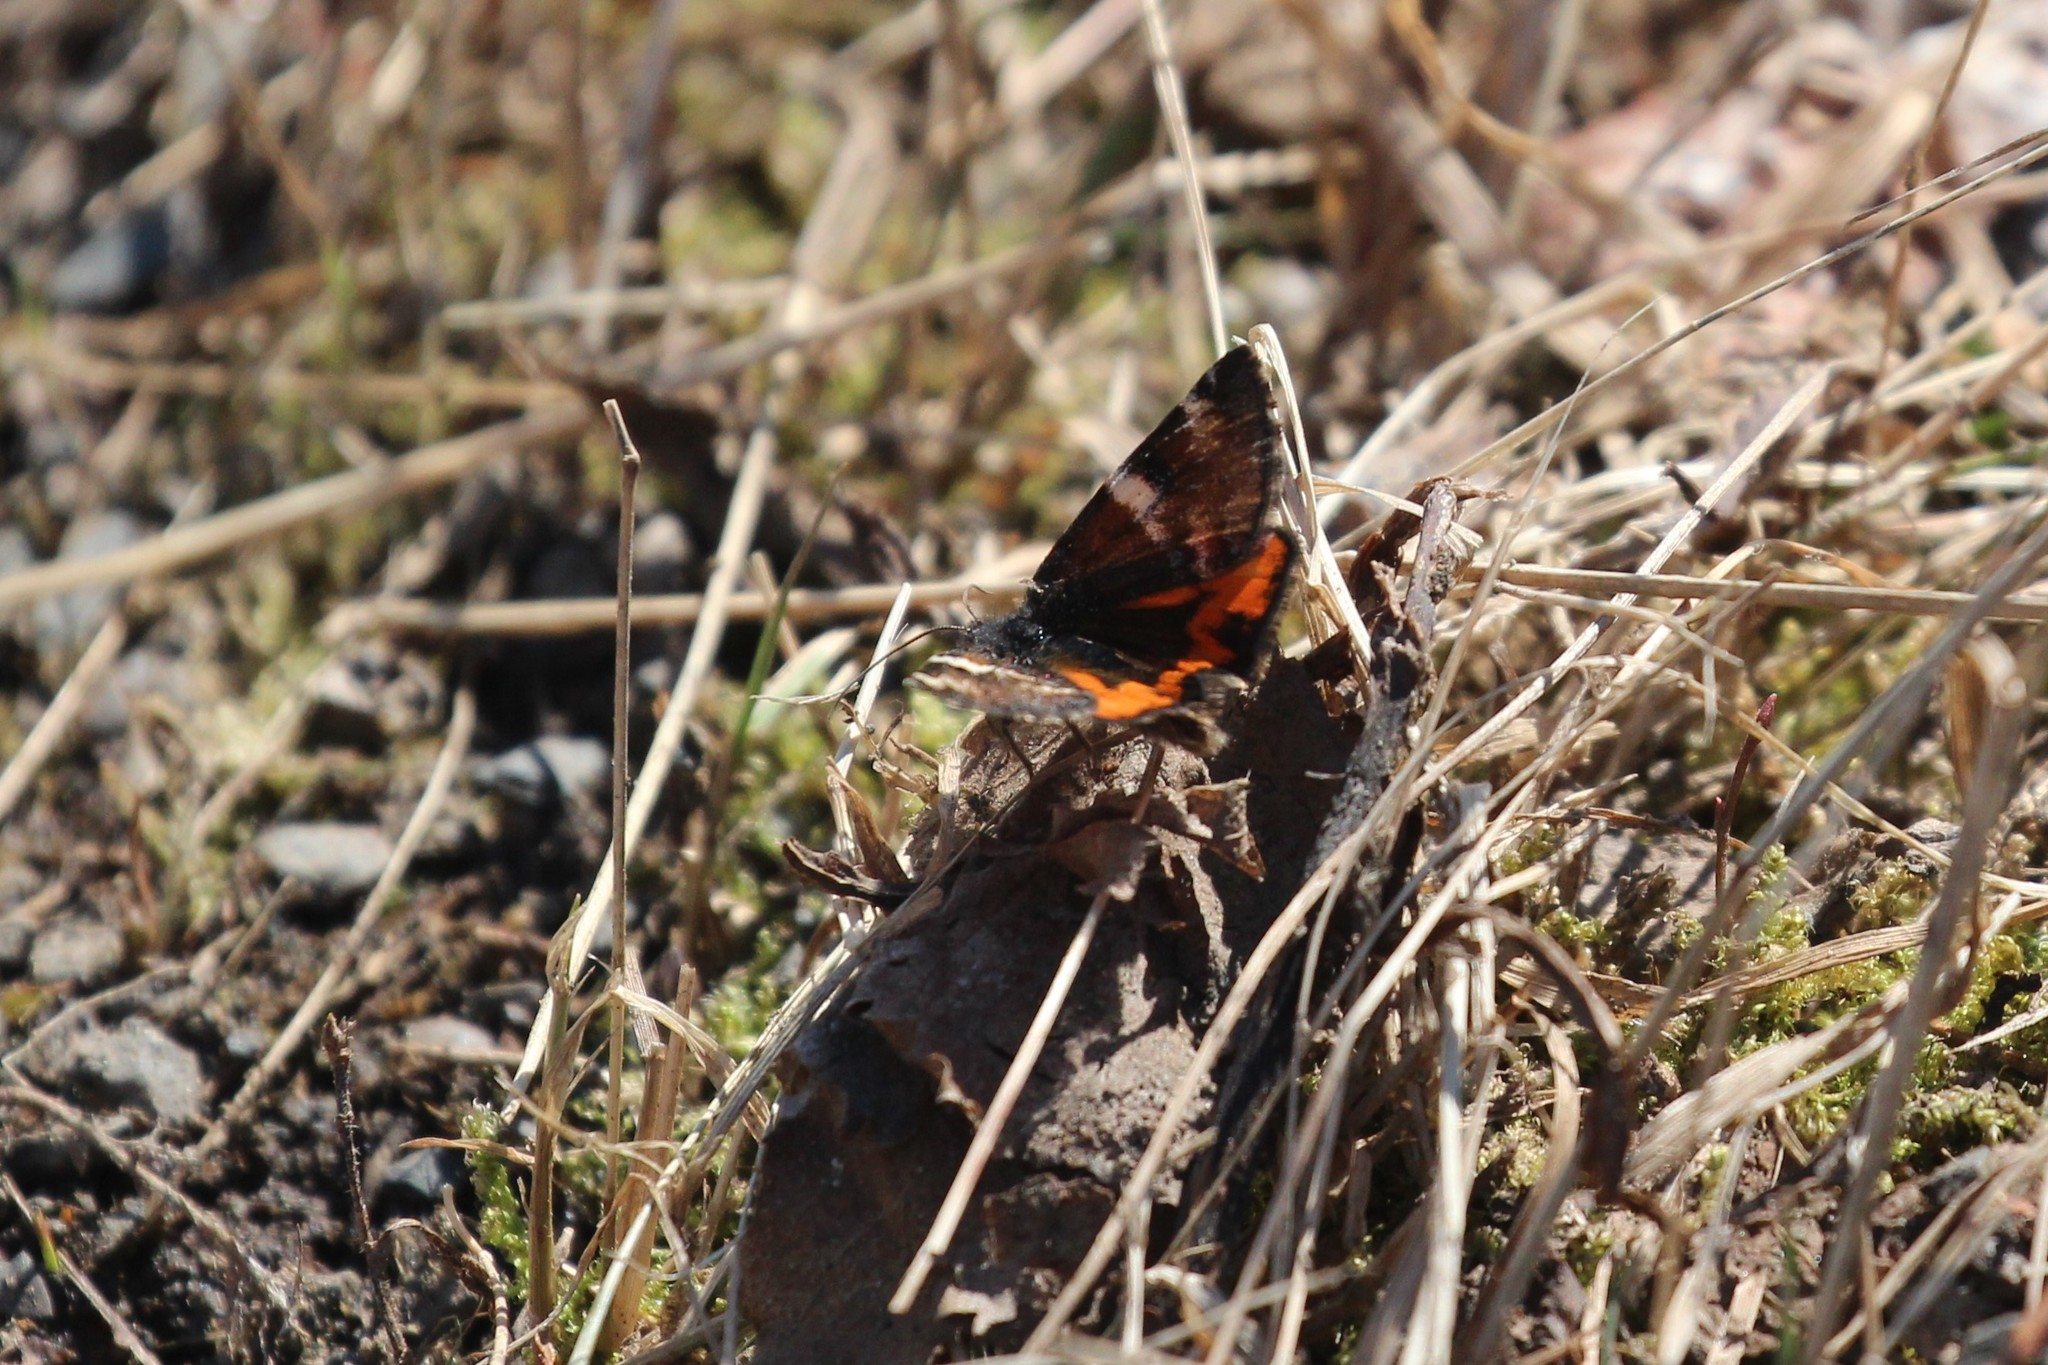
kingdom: Animalia
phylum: Arthropoda
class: Insecta
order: Lepidoptera
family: Geometridae
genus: Archiearis
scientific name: Archiearis infans
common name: First born geometer
